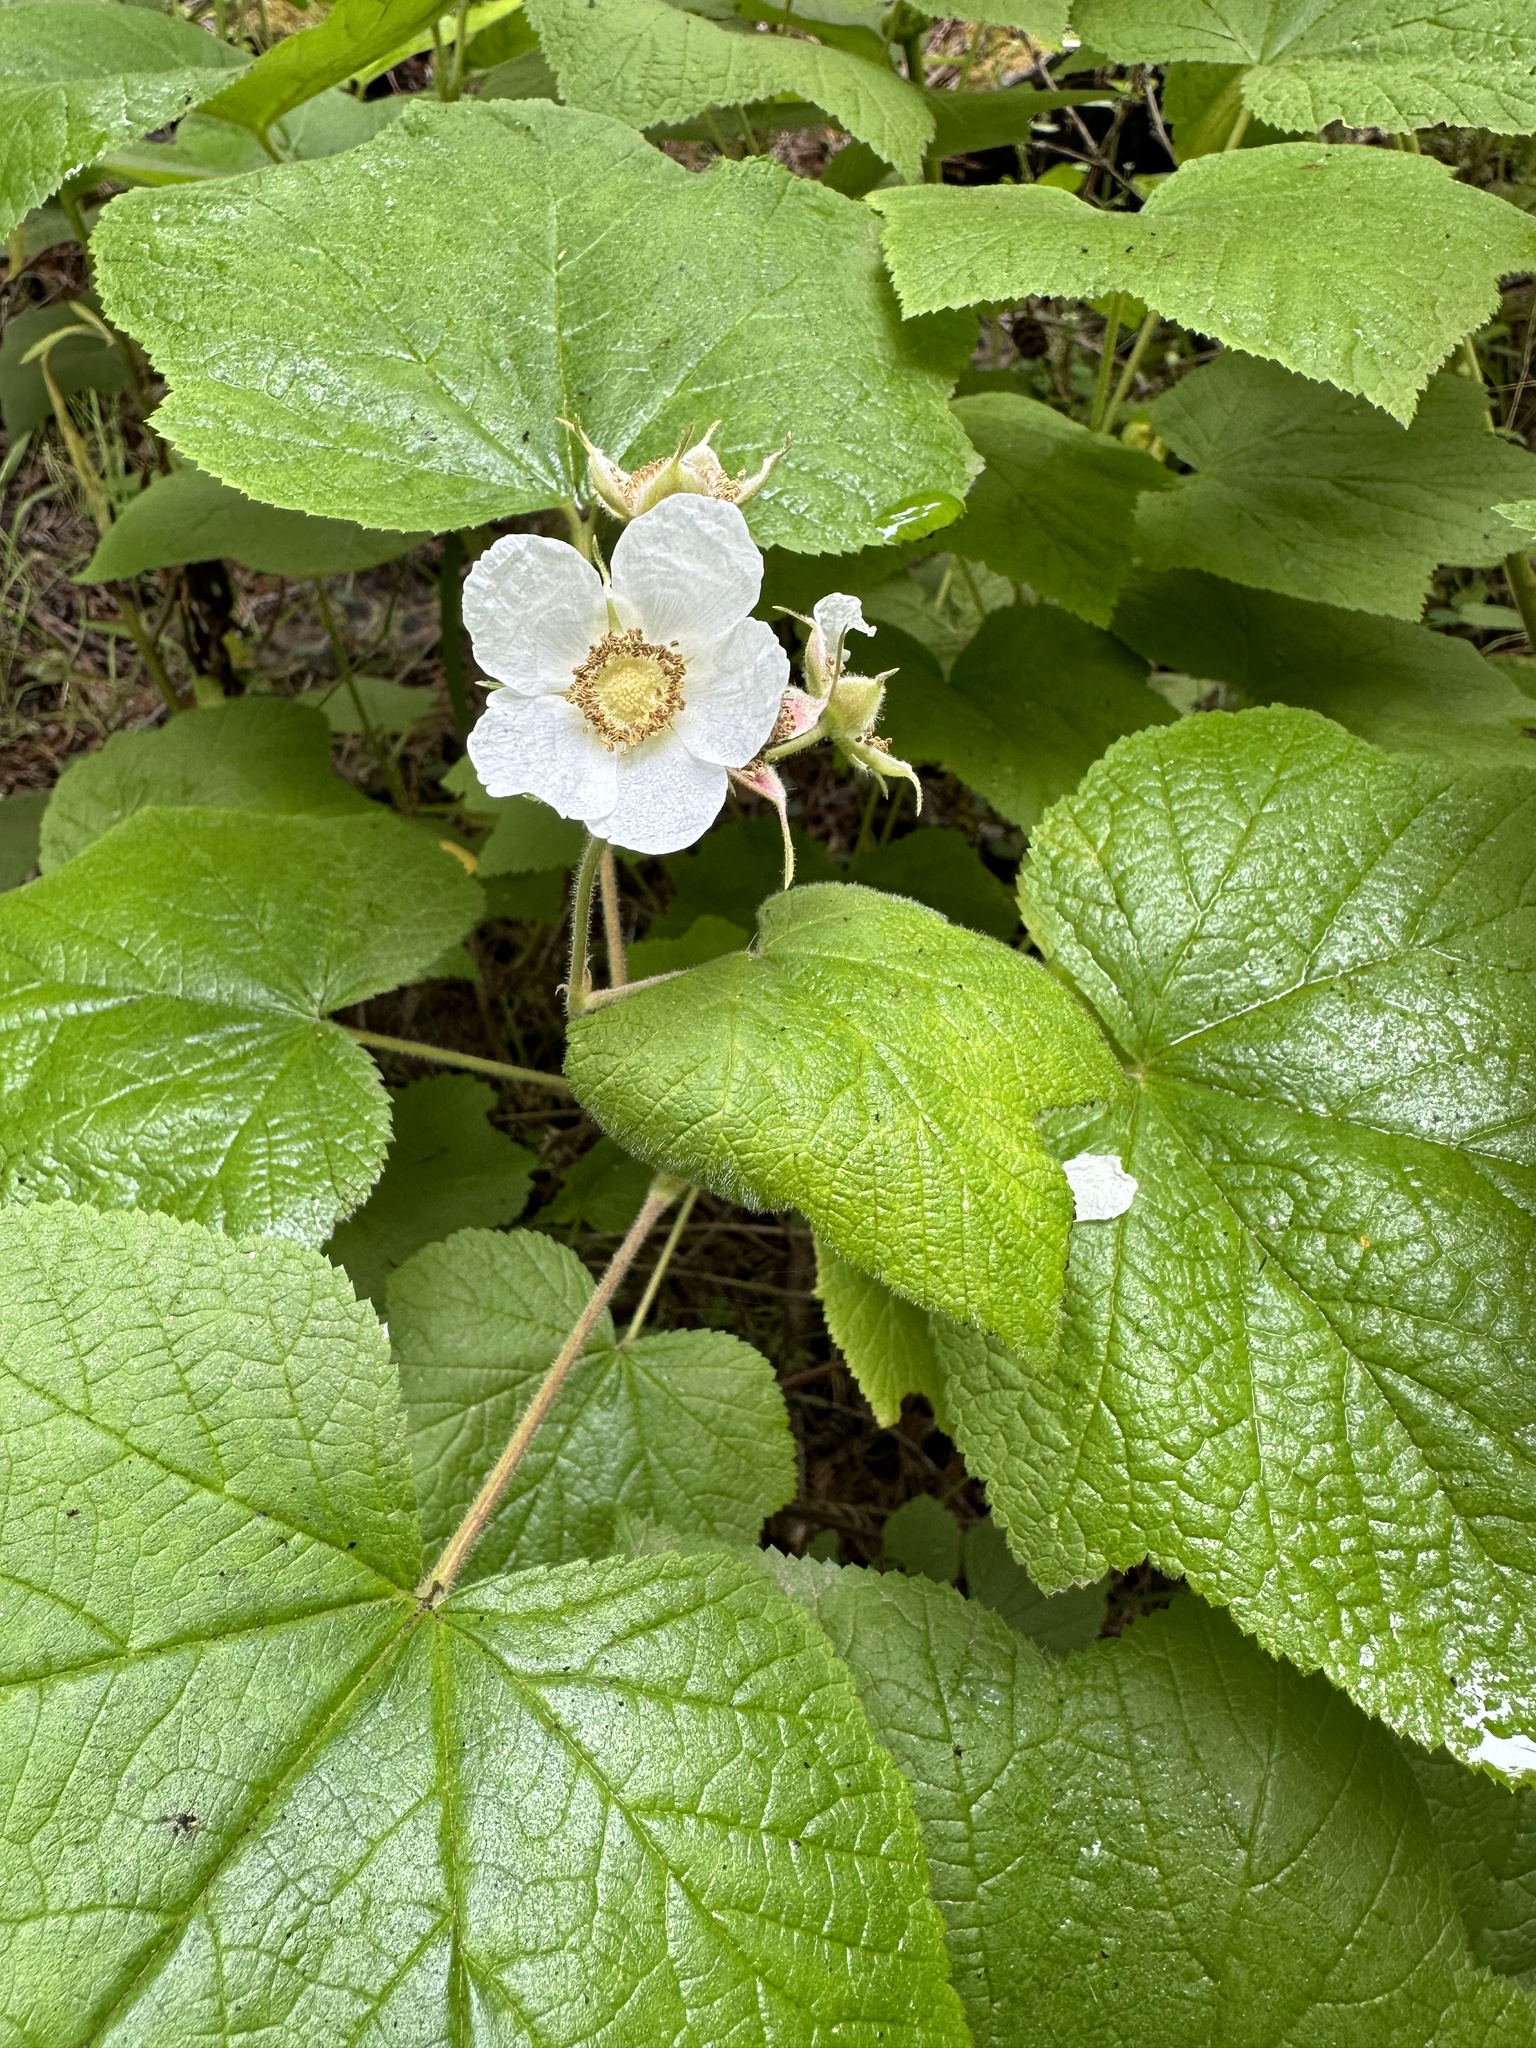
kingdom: Plantae
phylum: Tracheophyta
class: Magnoliopsida
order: Rosales
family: Rosaceae
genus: Rubus
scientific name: Rubus parviflorus
